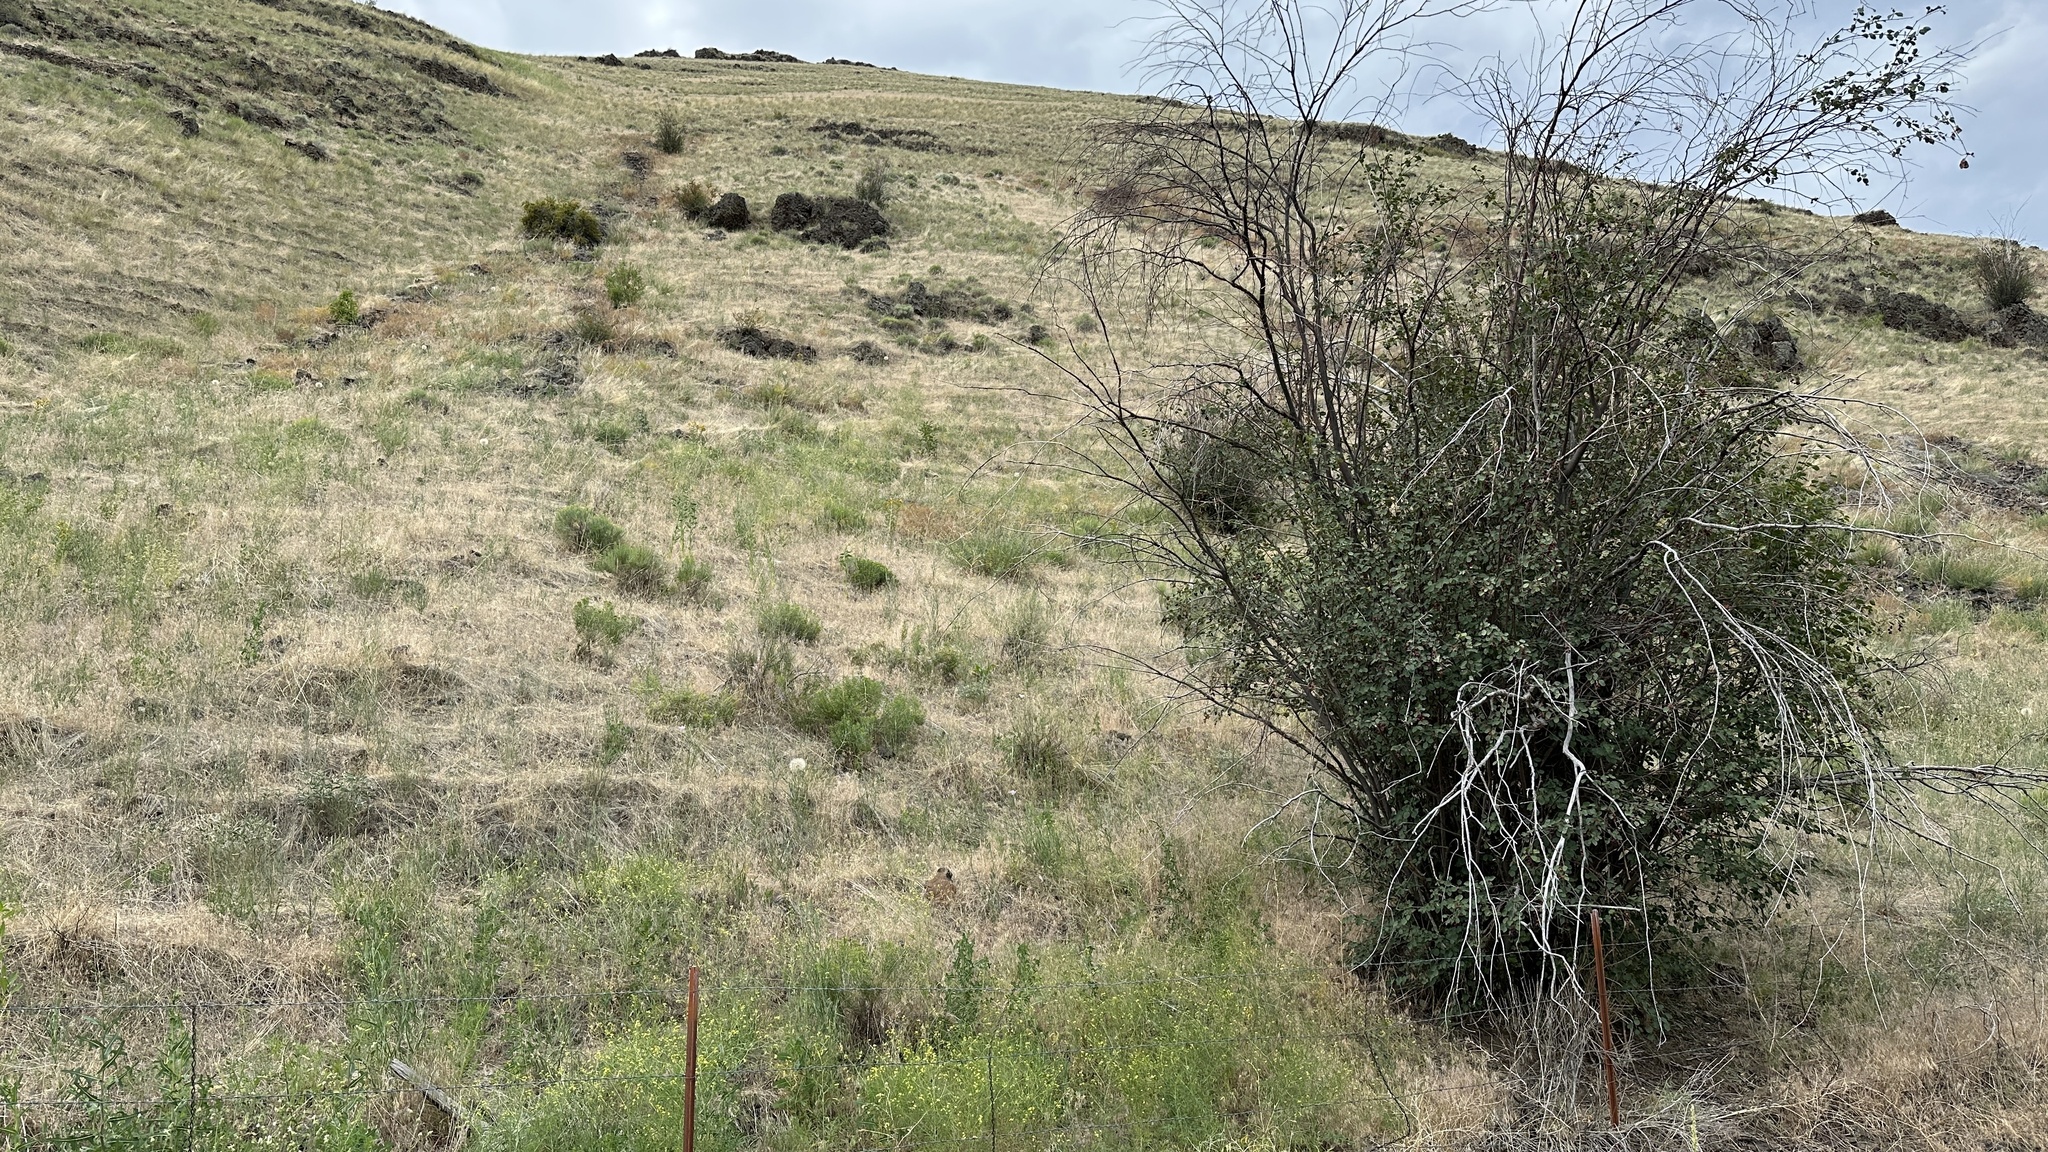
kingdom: Plantae
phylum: Tracheophyta
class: Liliopsida
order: Liliales
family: Liliaceae
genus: Calochortus
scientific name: Calochortus macrocarpus
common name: Green-band mariposa lily
